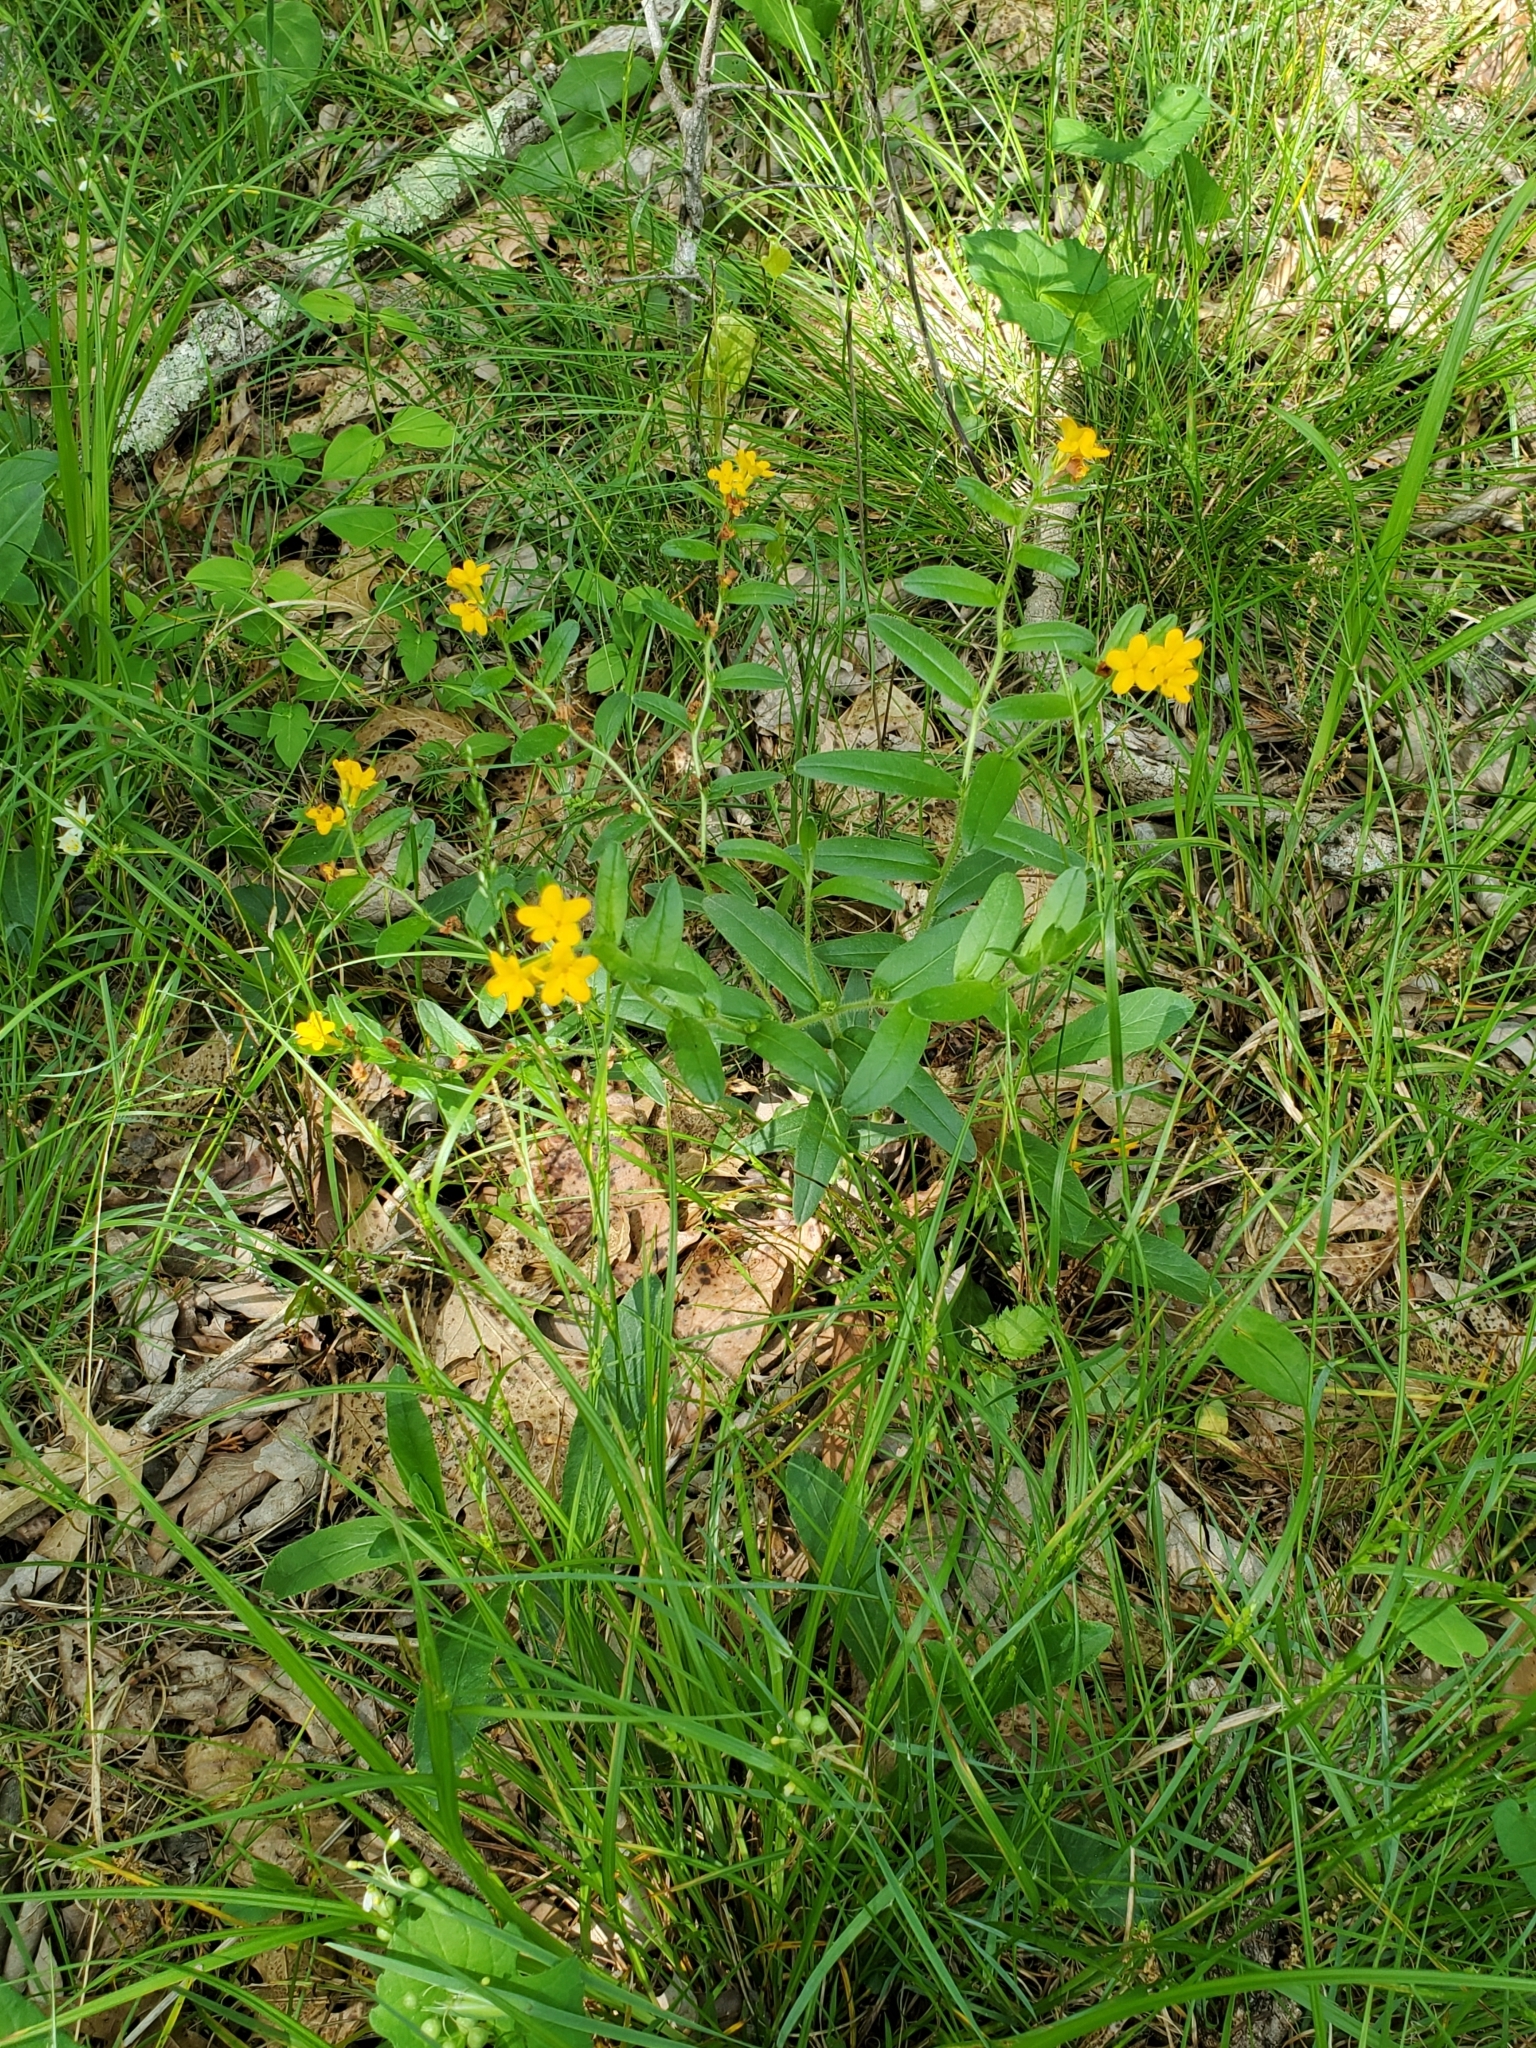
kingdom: Plantae
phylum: Tracheophyta
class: Magnoliopsida
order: Boraginales
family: Boraginaceae
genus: Lithospermum
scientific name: Lithospermum canescens
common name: Hoary puccoon
